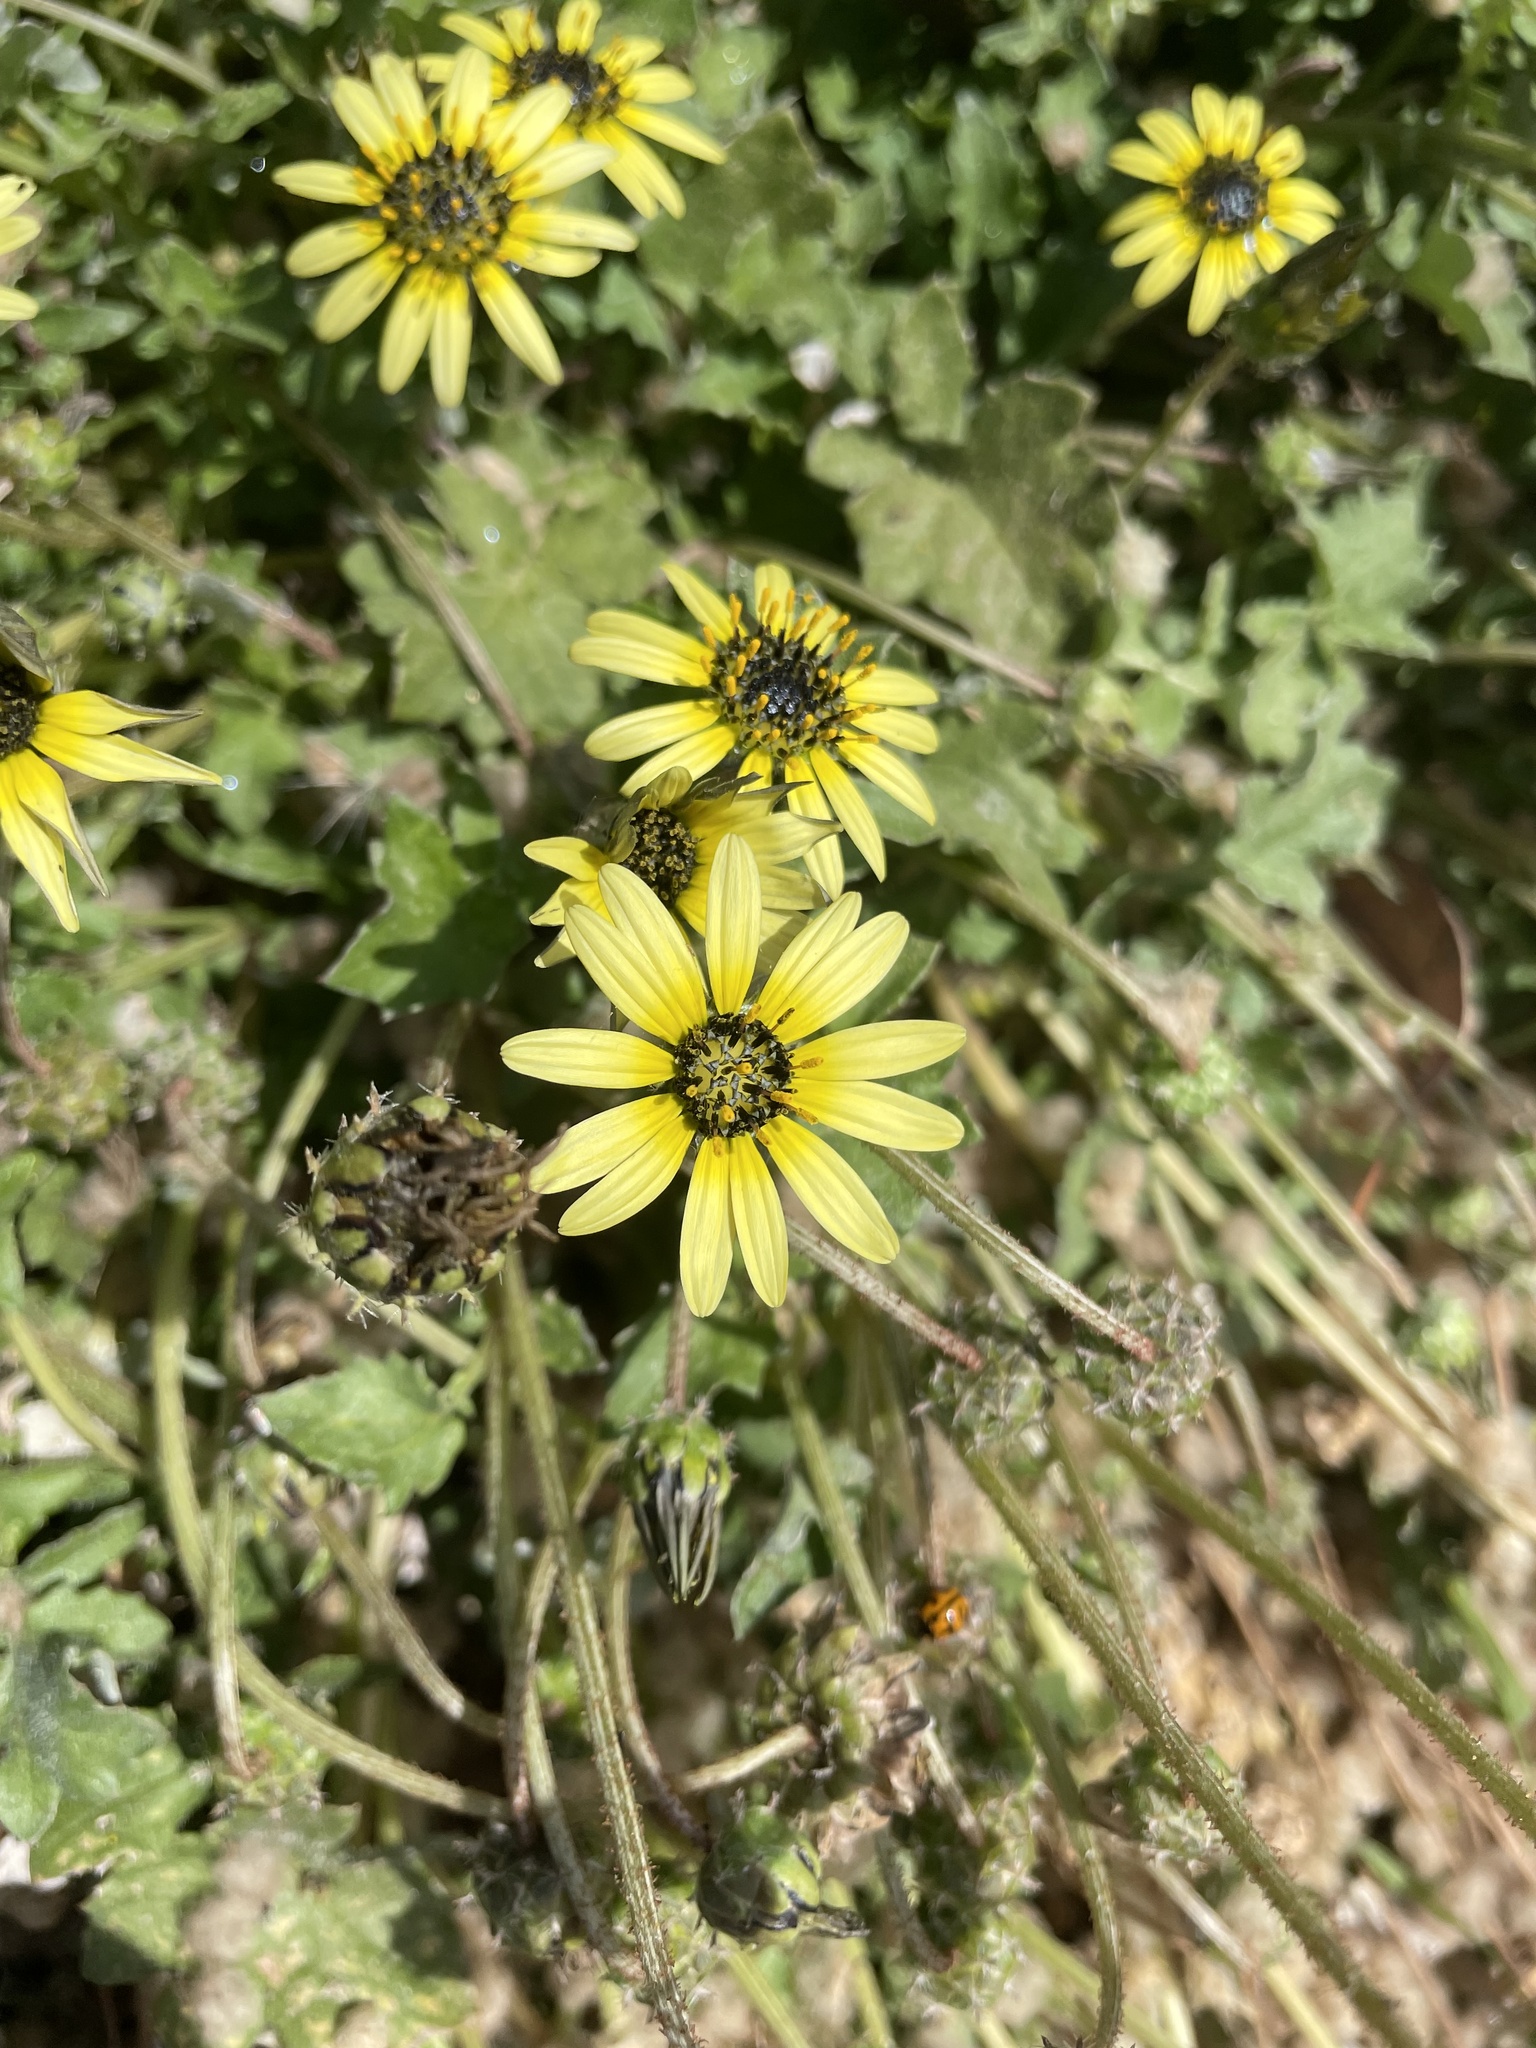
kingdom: Plantae
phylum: Tracheophyta
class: Magnoliopsida
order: Asterales
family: Asteraceae
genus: Arctotheca
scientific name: Arctotheca calendula
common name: Capeweed
